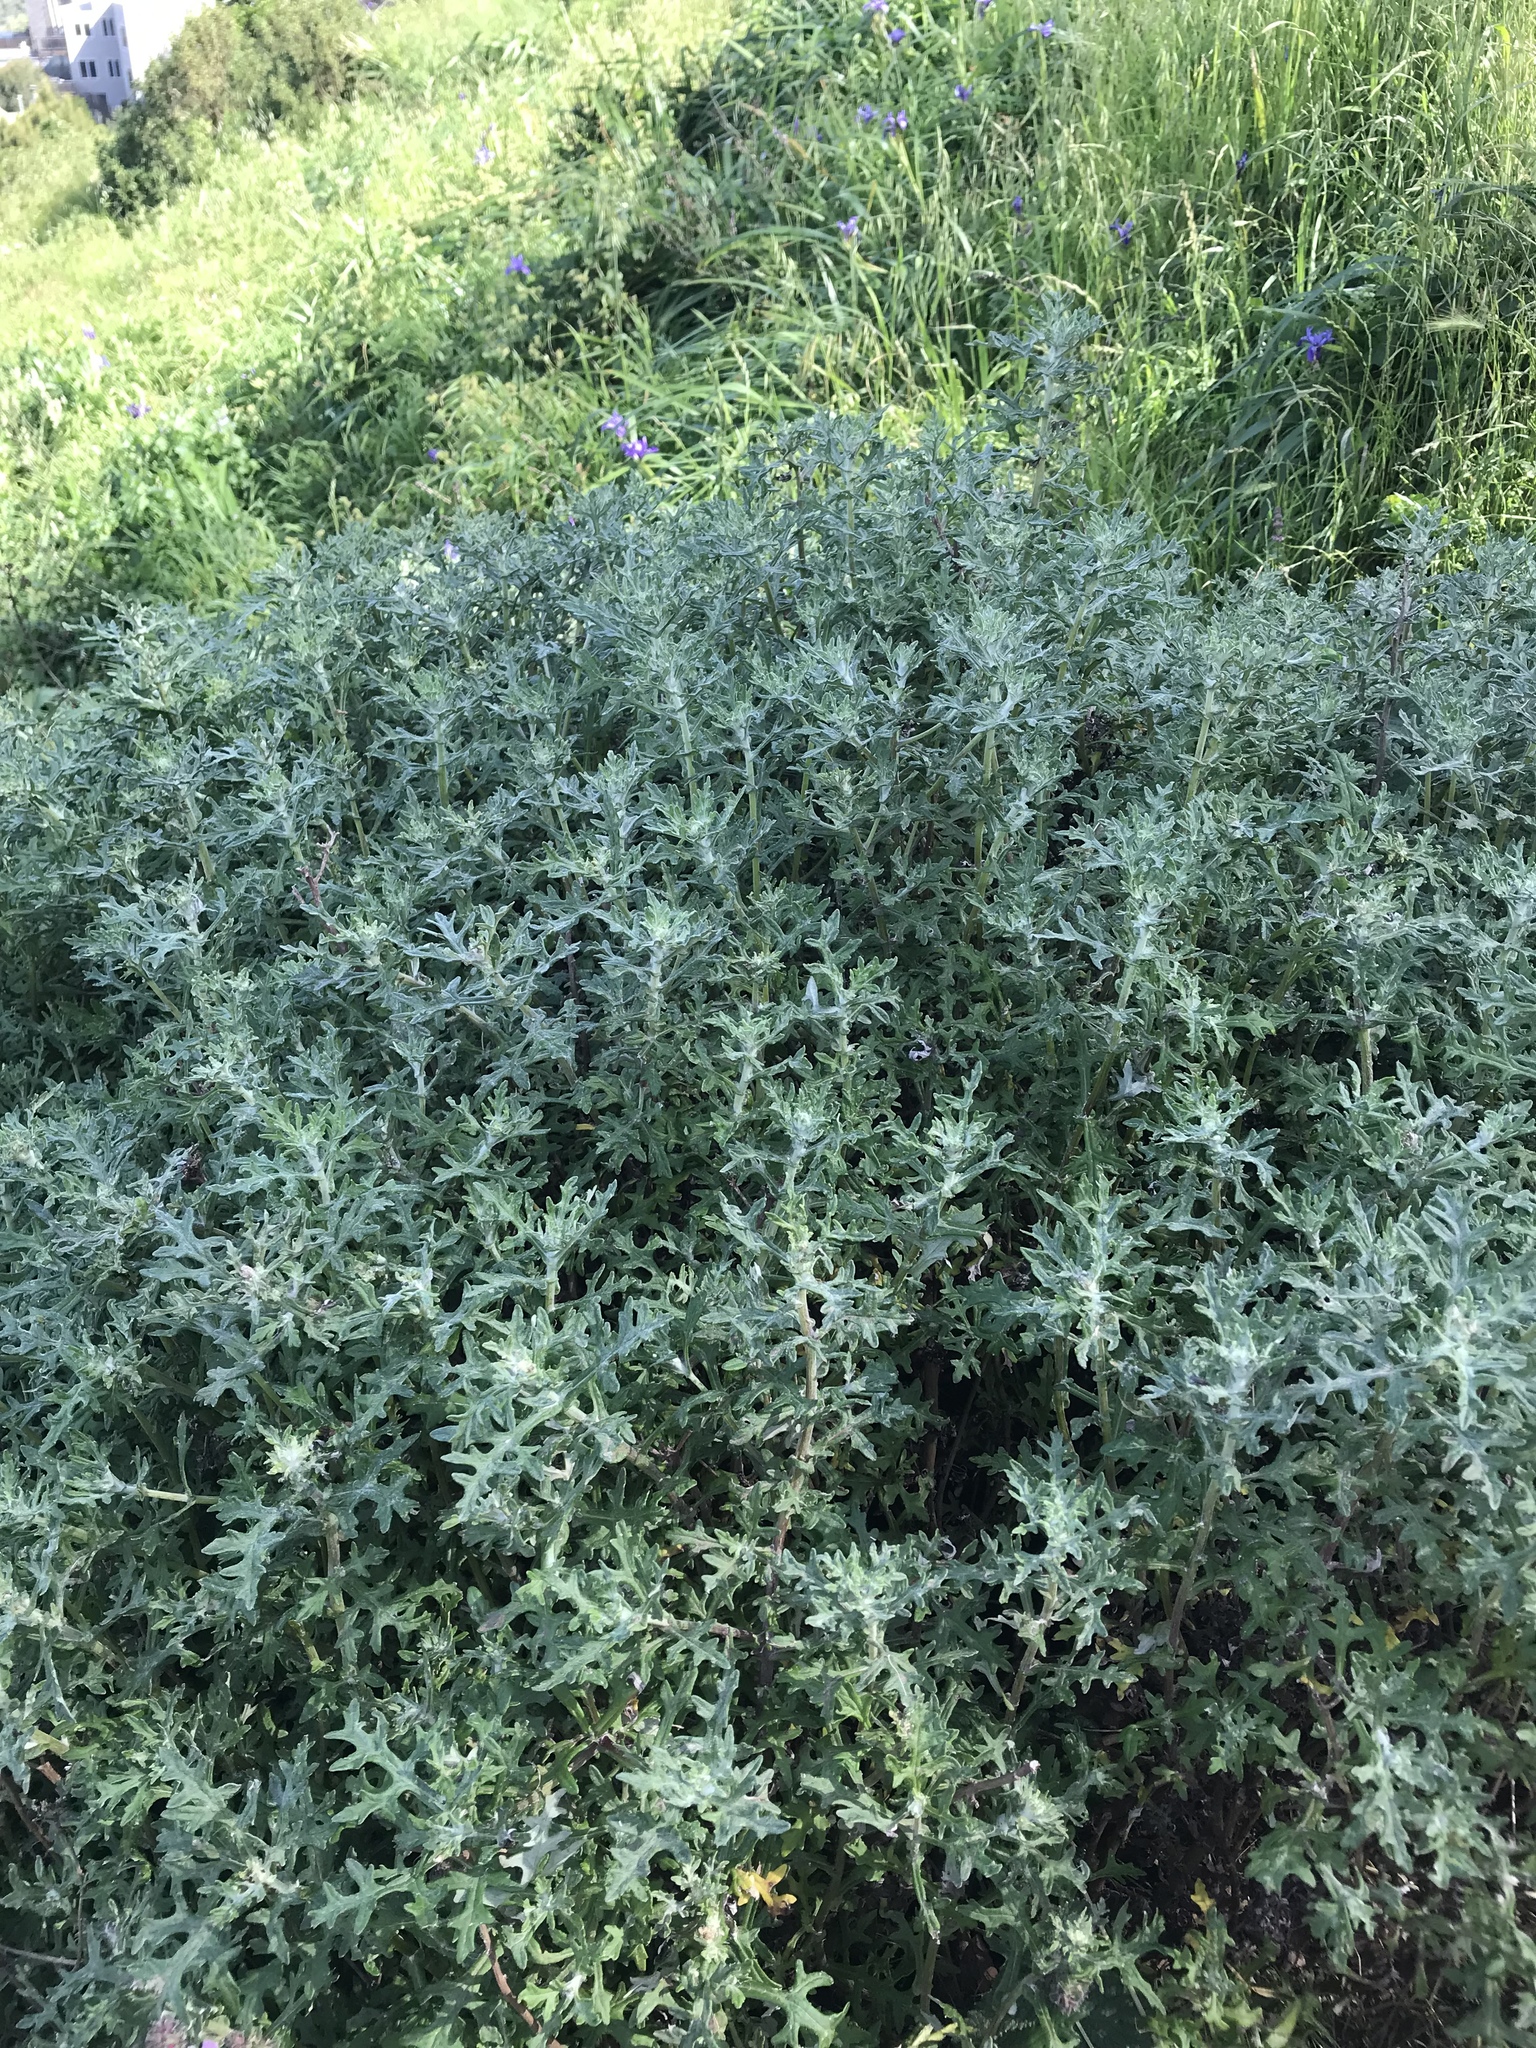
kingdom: Plantae
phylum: Tracheophyta
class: Magnoliopsida
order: Asterales
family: Asteraceae
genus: Eriophyllum
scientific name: Eriophyllum staechadifolium
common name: Lizardtail
